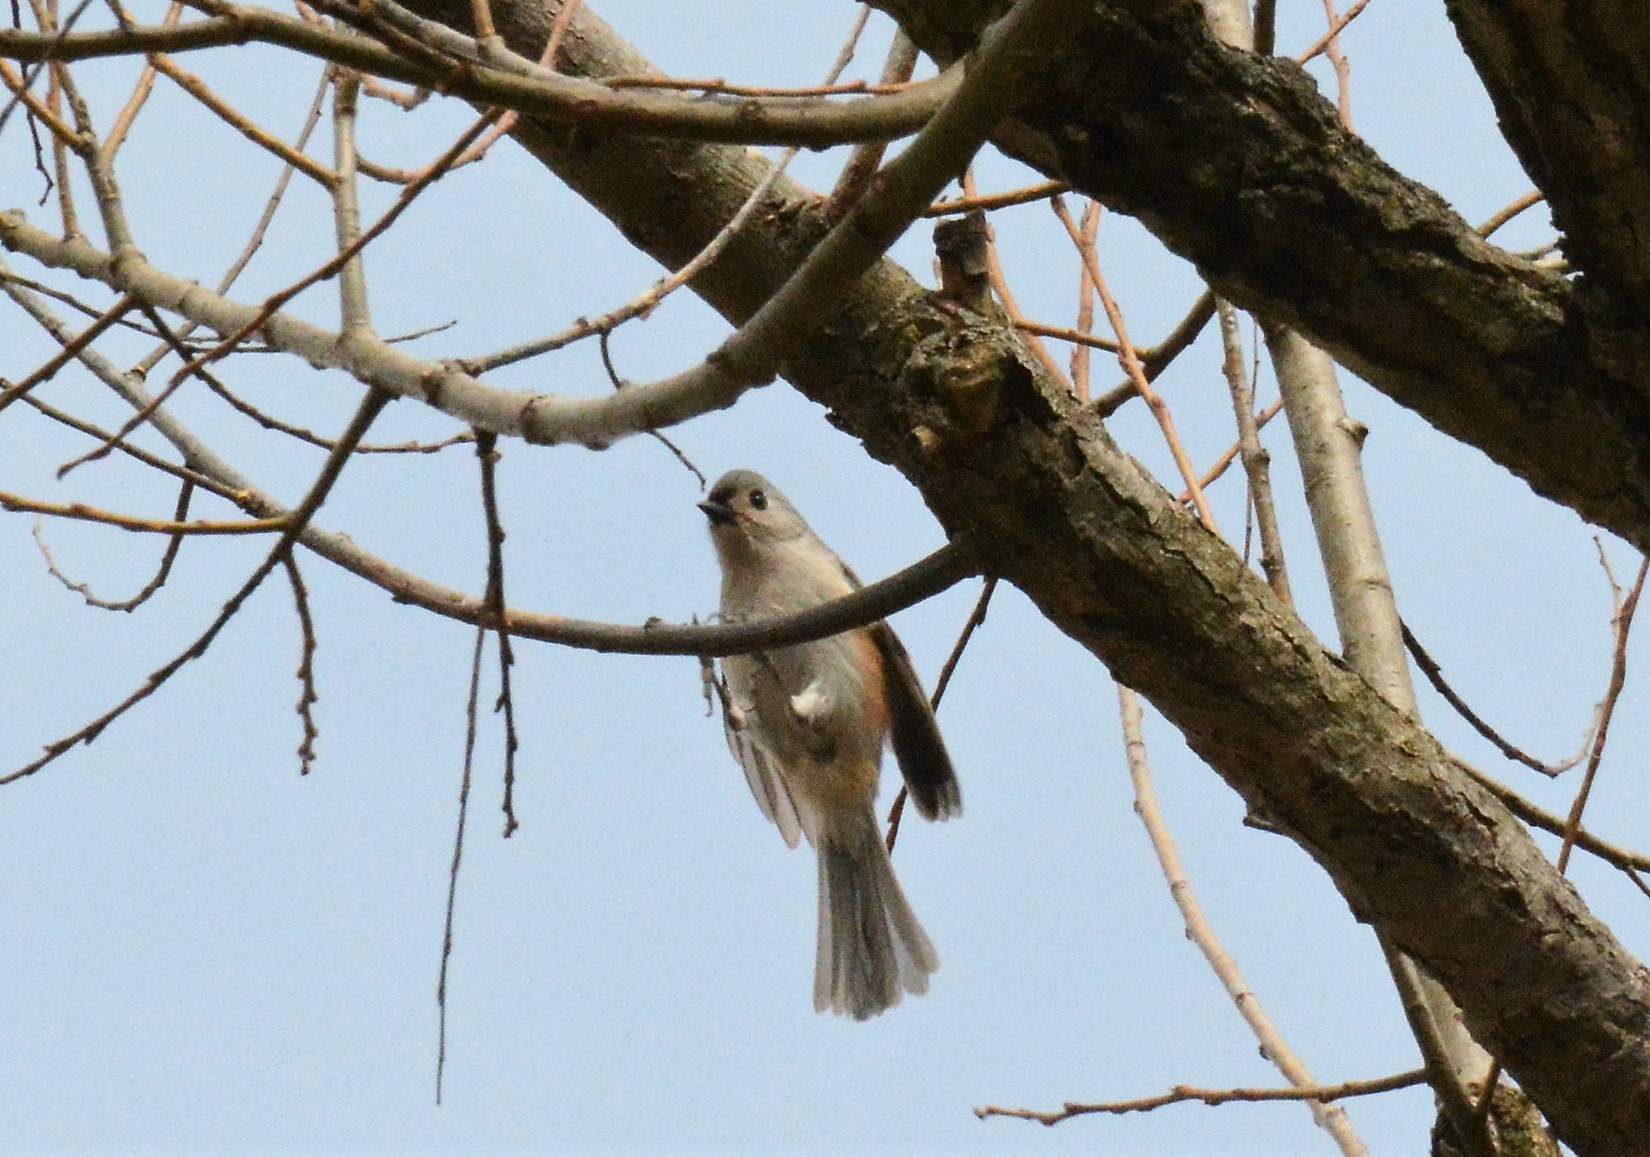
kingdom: Animalia
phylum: Chordata
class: Aves
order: Passeriformes
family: Paridae
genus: Baeolophus
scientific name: Baeolophus bicolor
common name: Tufted titmouse
